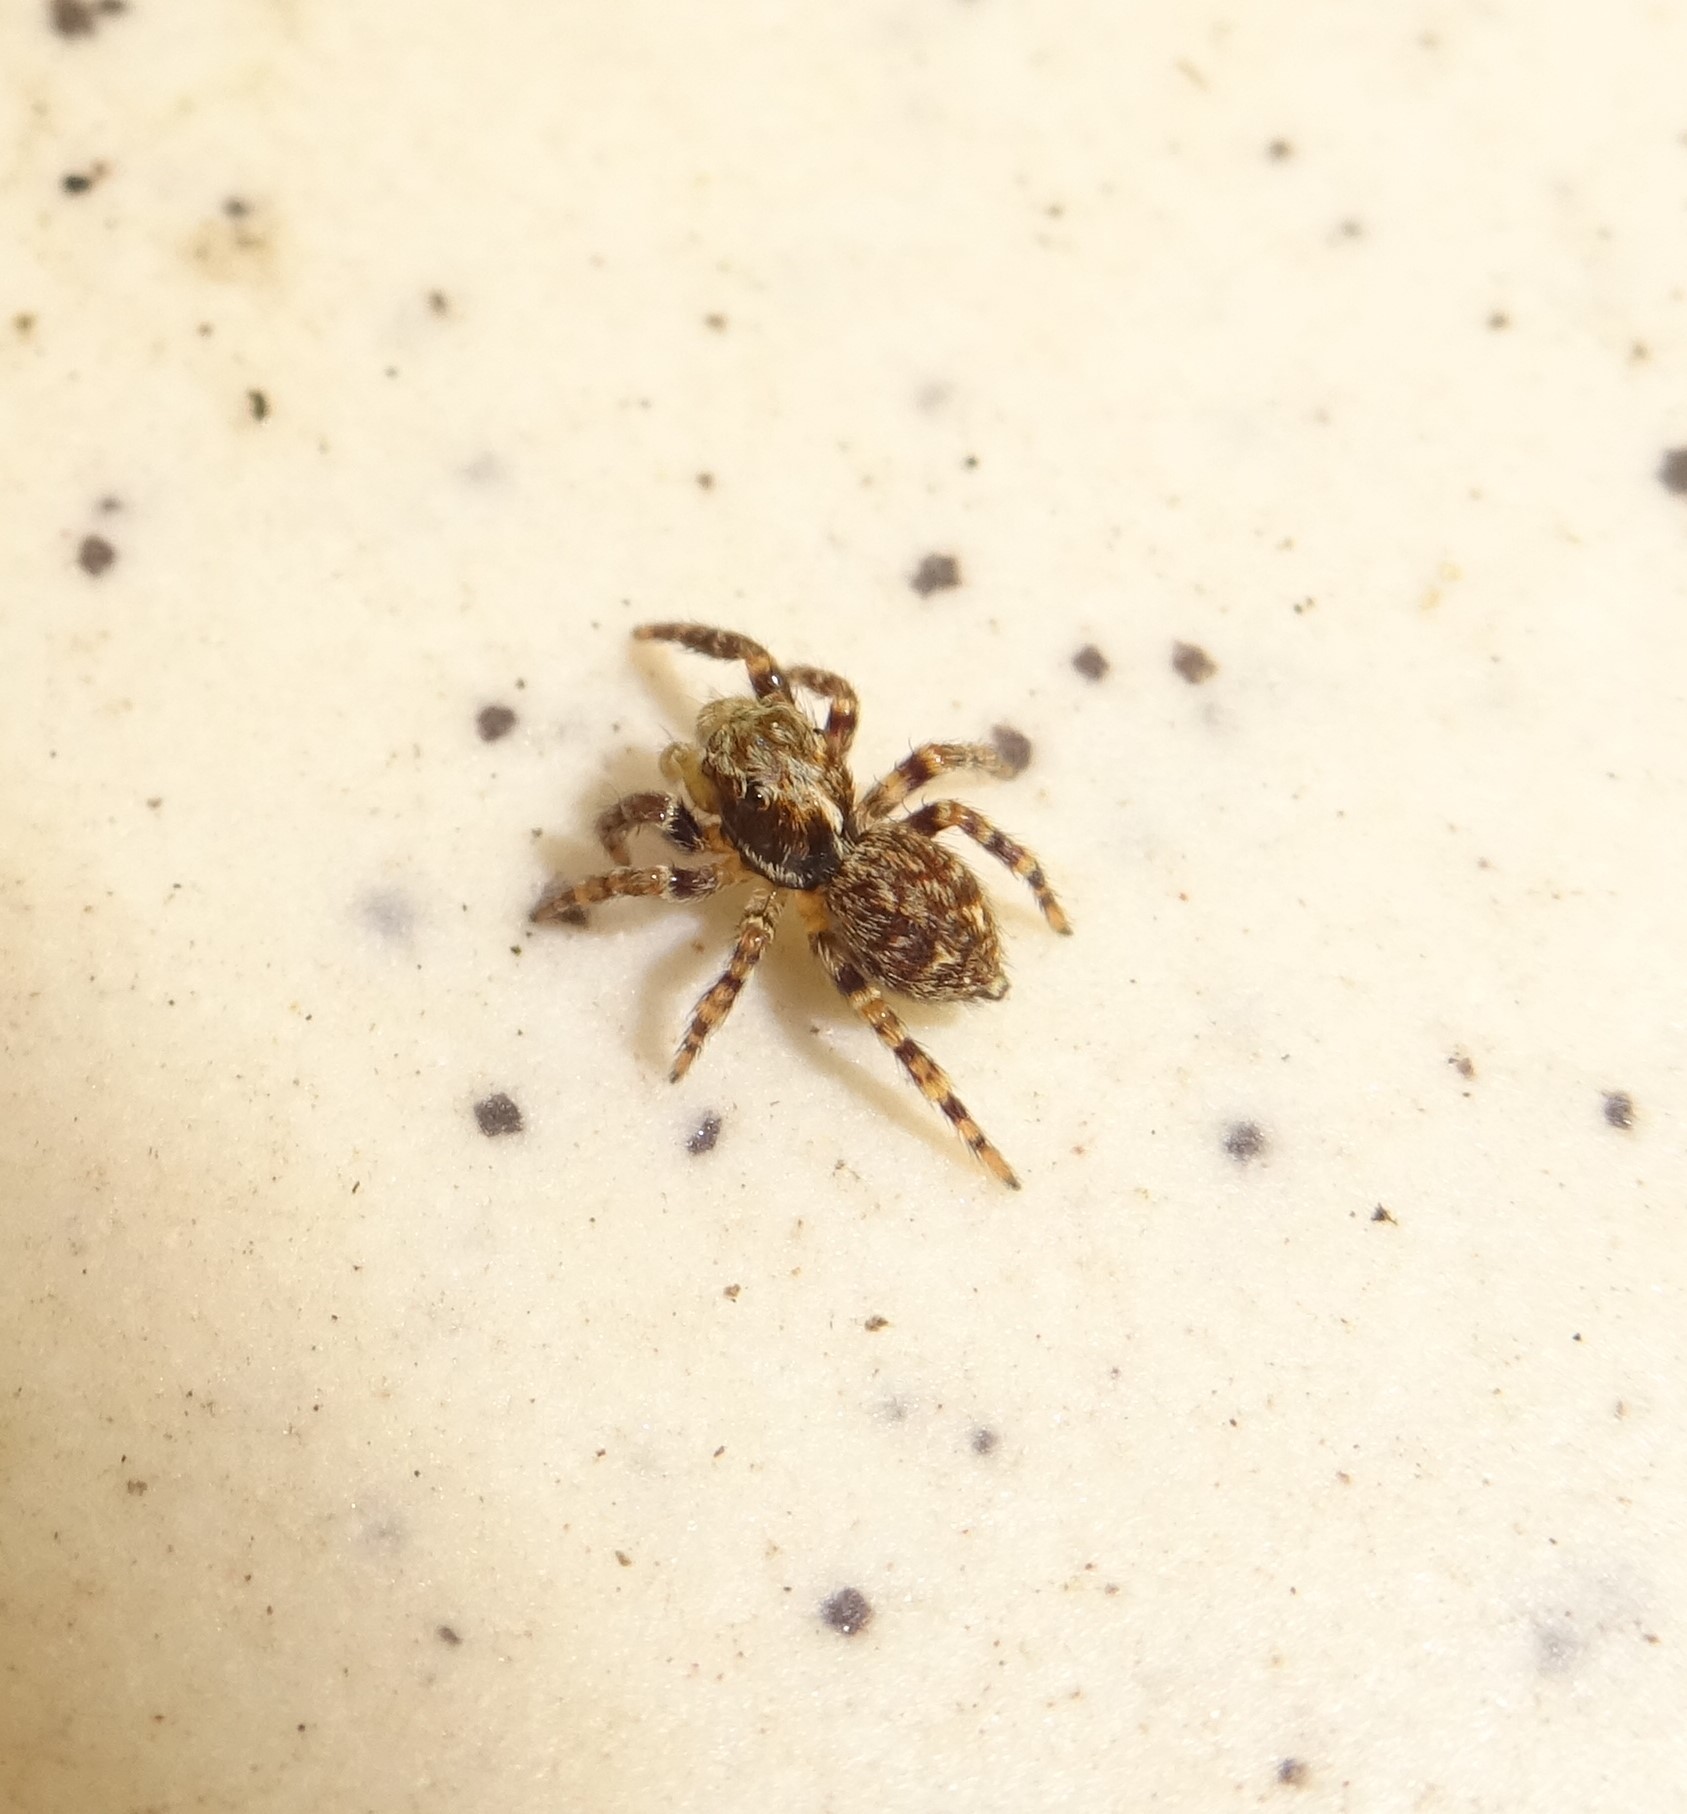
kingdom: Animalia
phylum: Arthropoda
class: Arachnida
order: Araneae
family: Salticidae
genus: Pseudeuophrys
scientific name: Pseudeuophrys erratica
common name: Jumping spider
